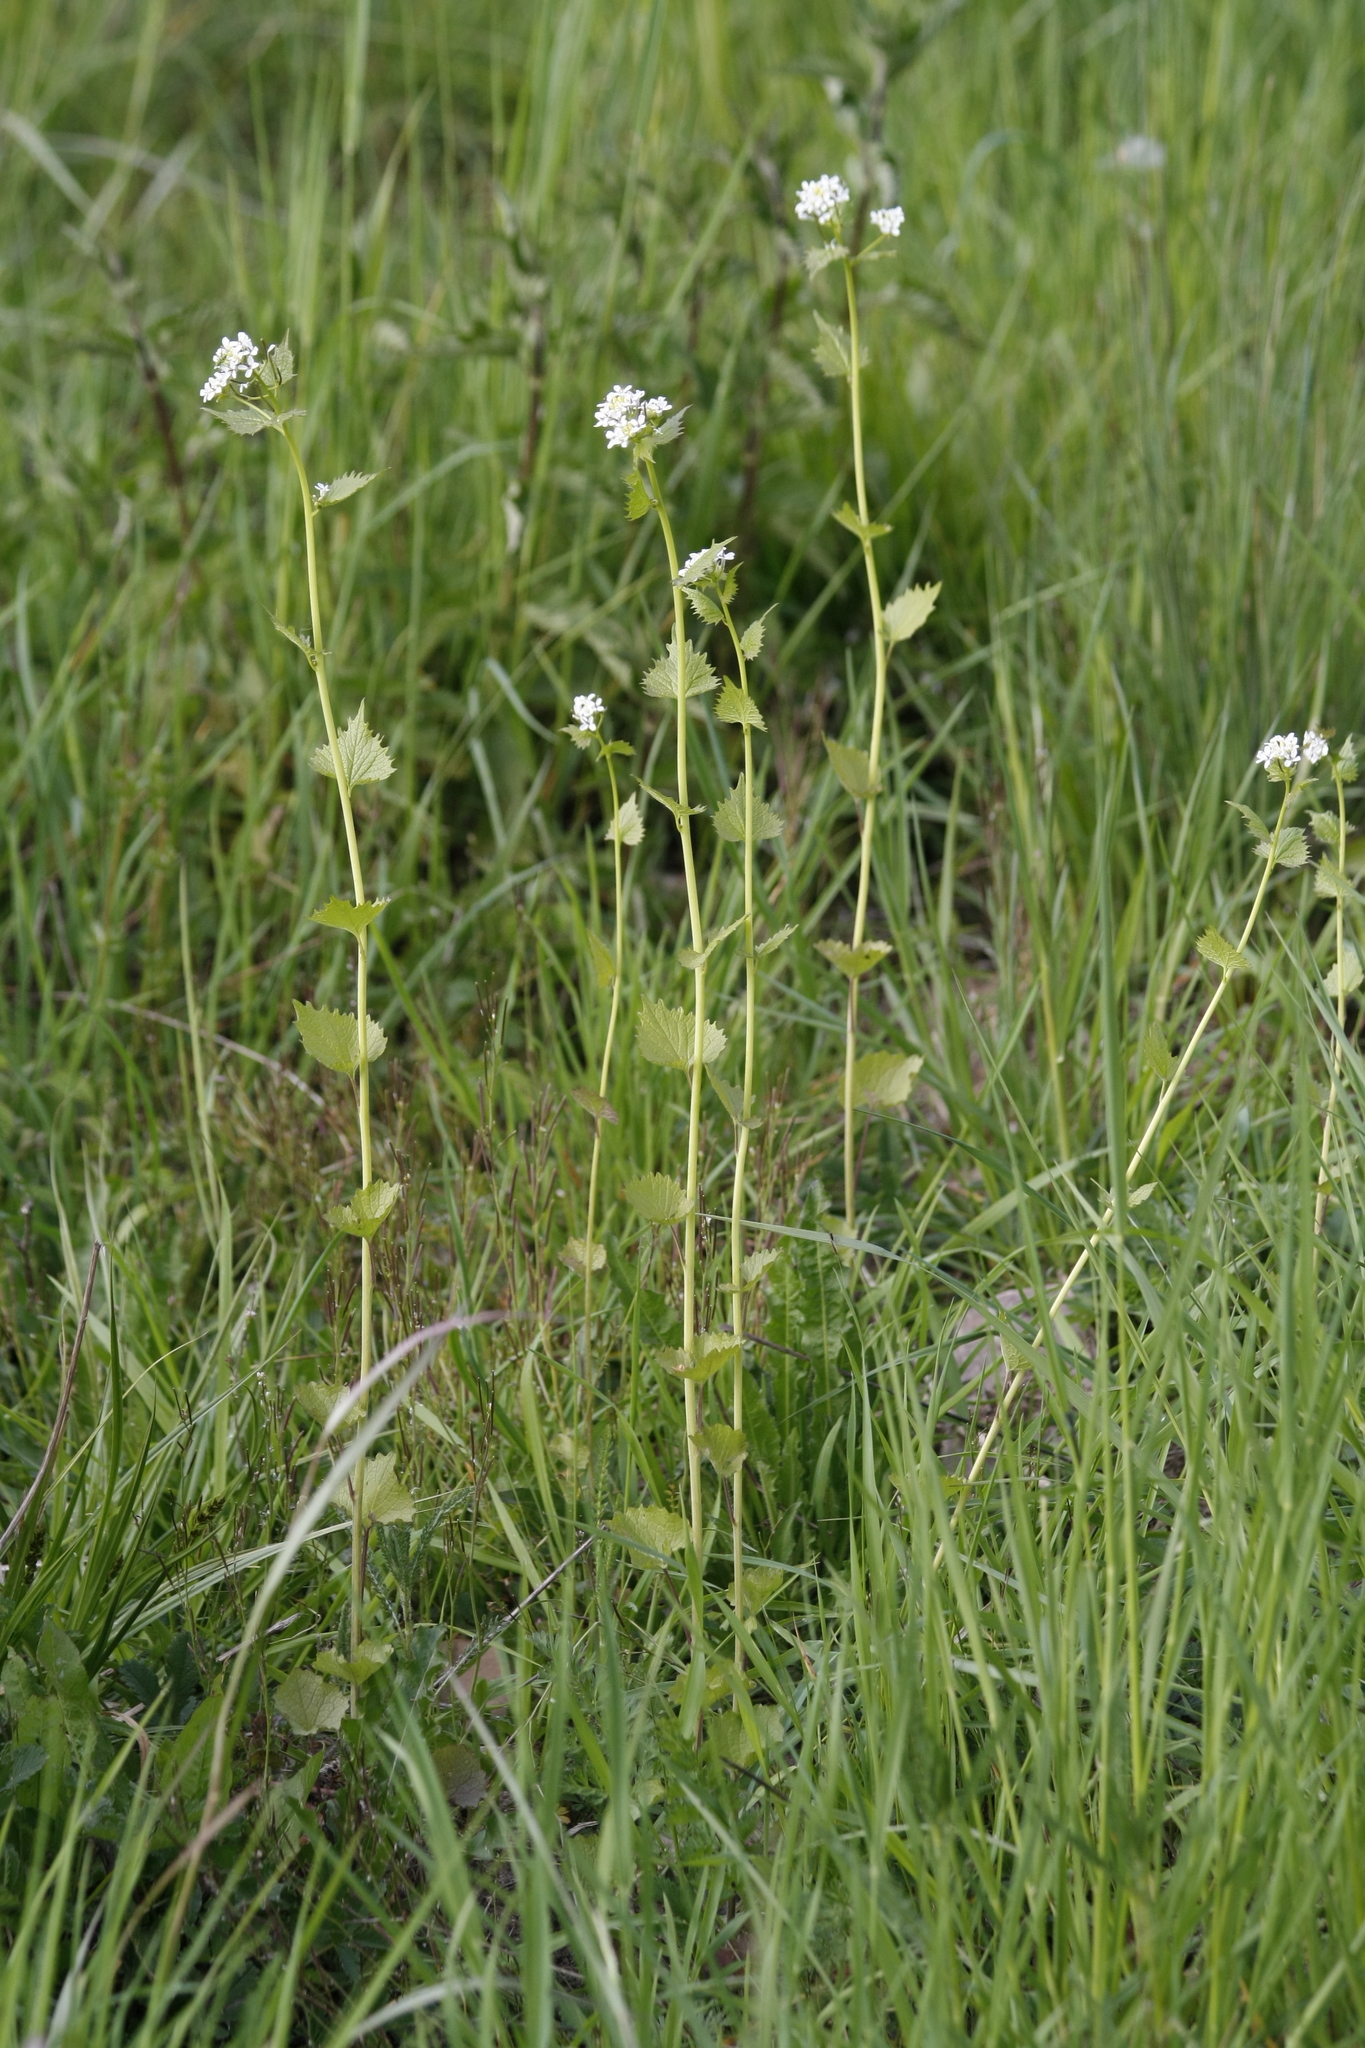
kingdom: Plantae
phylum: Tracheophyta
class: Magnoliopsida
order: Brassicales
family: Brassicaceae
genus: Alliaria
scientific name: Alliaria petiolata
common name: Garlic mustard
